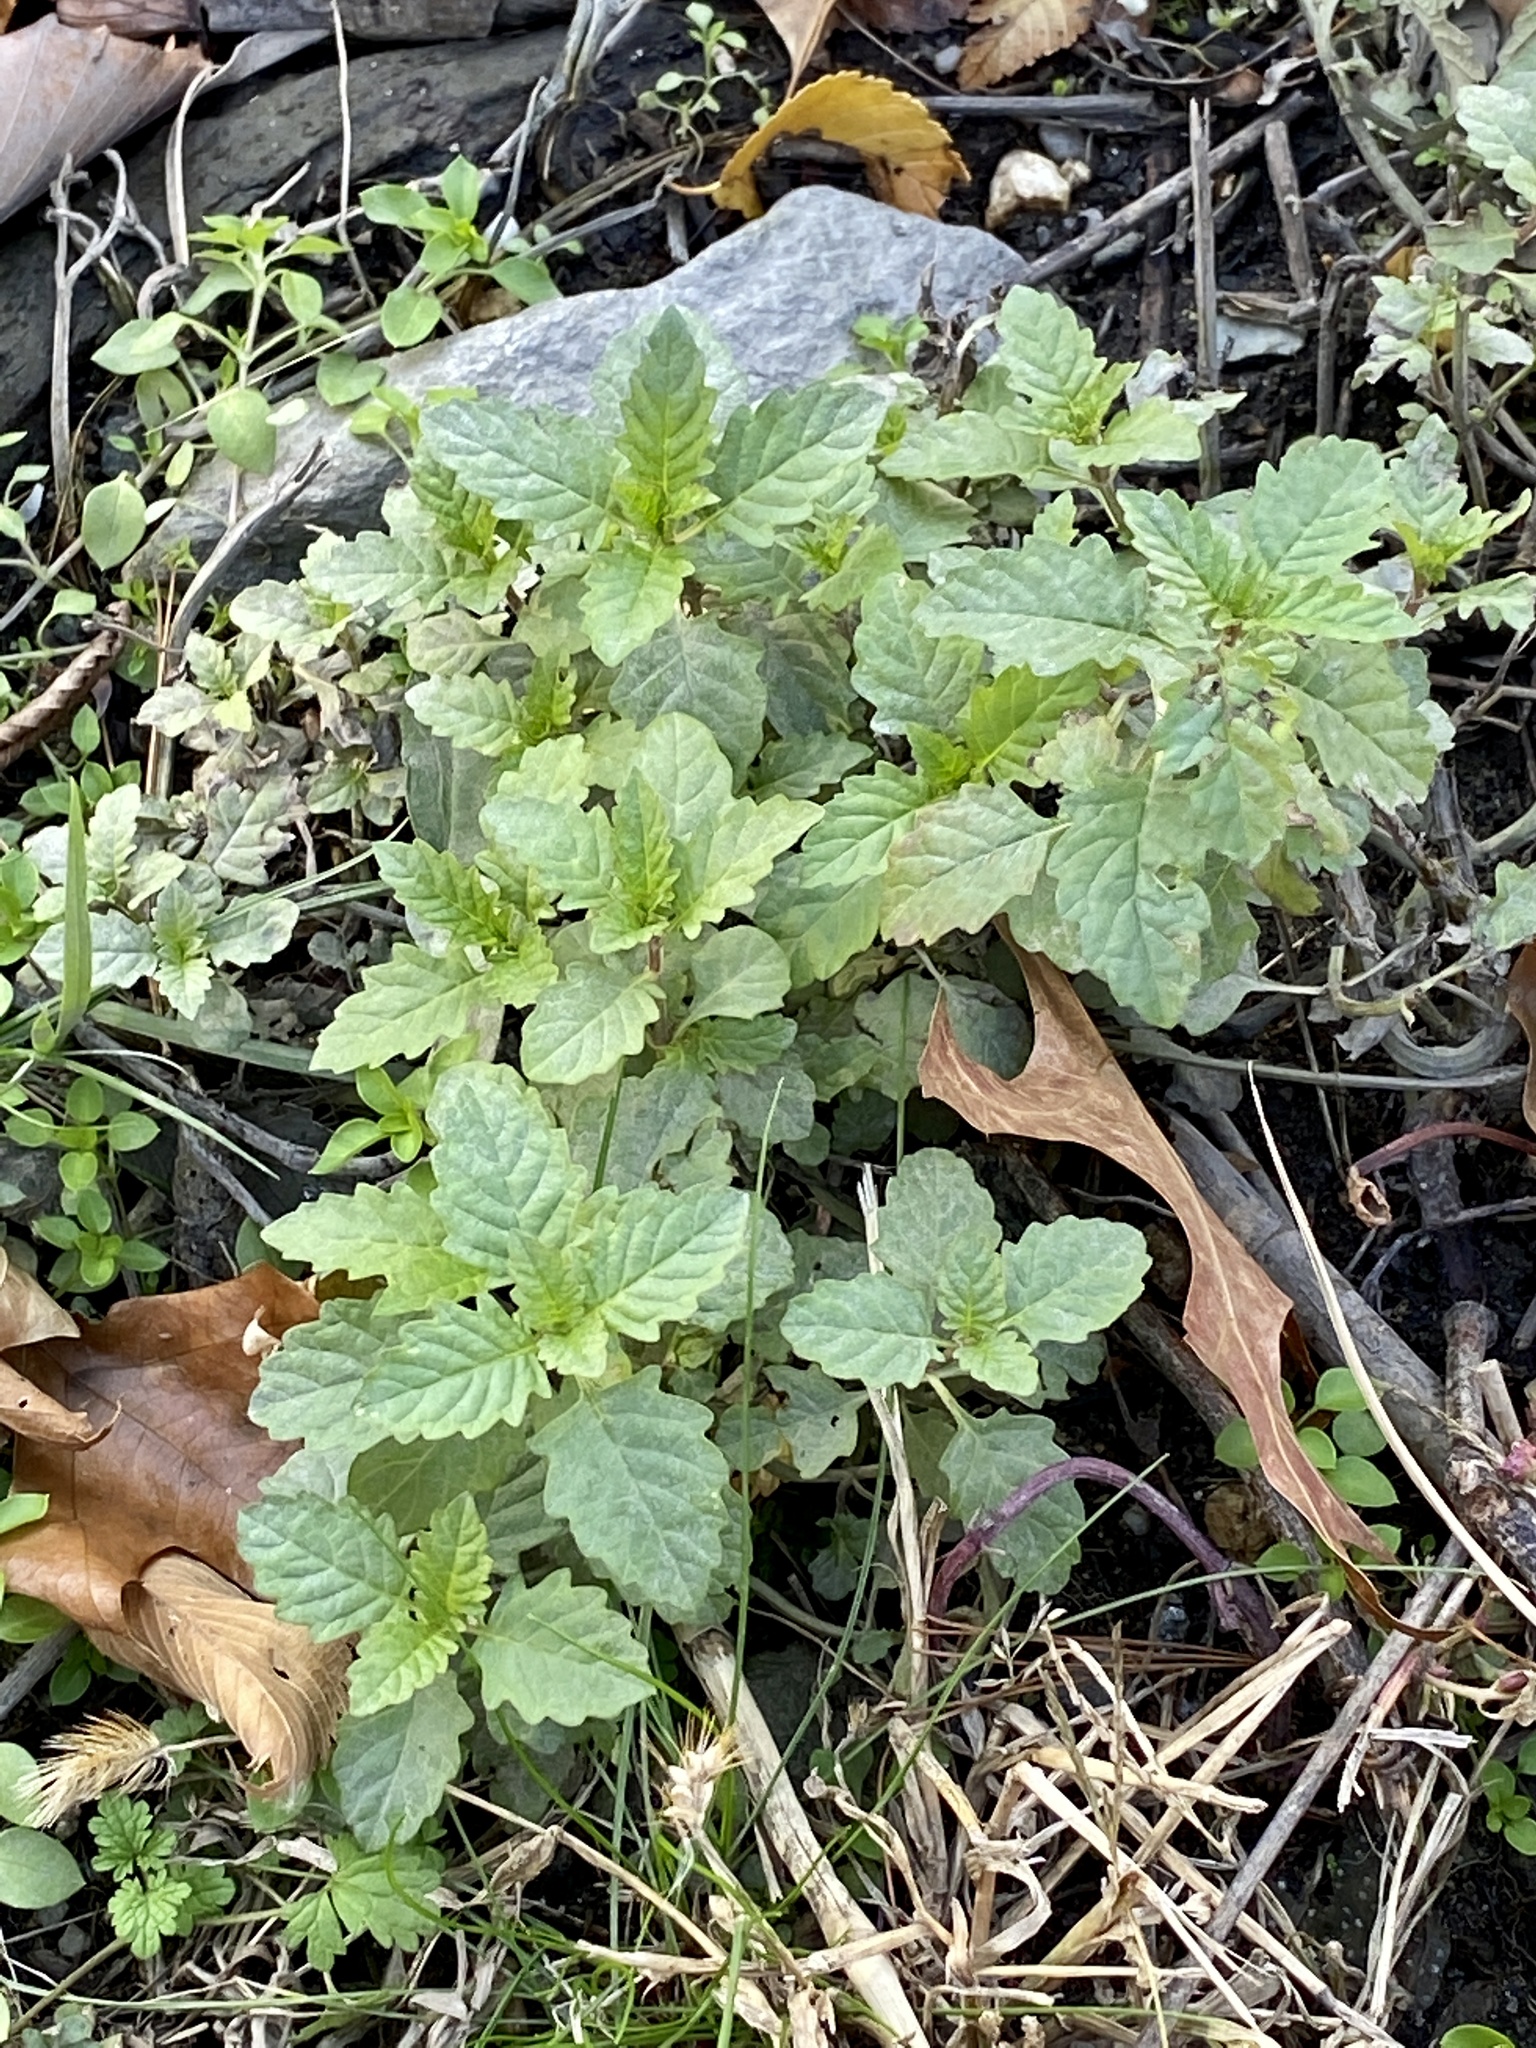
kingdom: Plantae
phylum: Tracheophyta
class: Magnoliopsida
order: Lamiales
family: Lamiaceae
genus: Lycopus
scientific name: Lycopus europaeus
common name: European bugleweed
